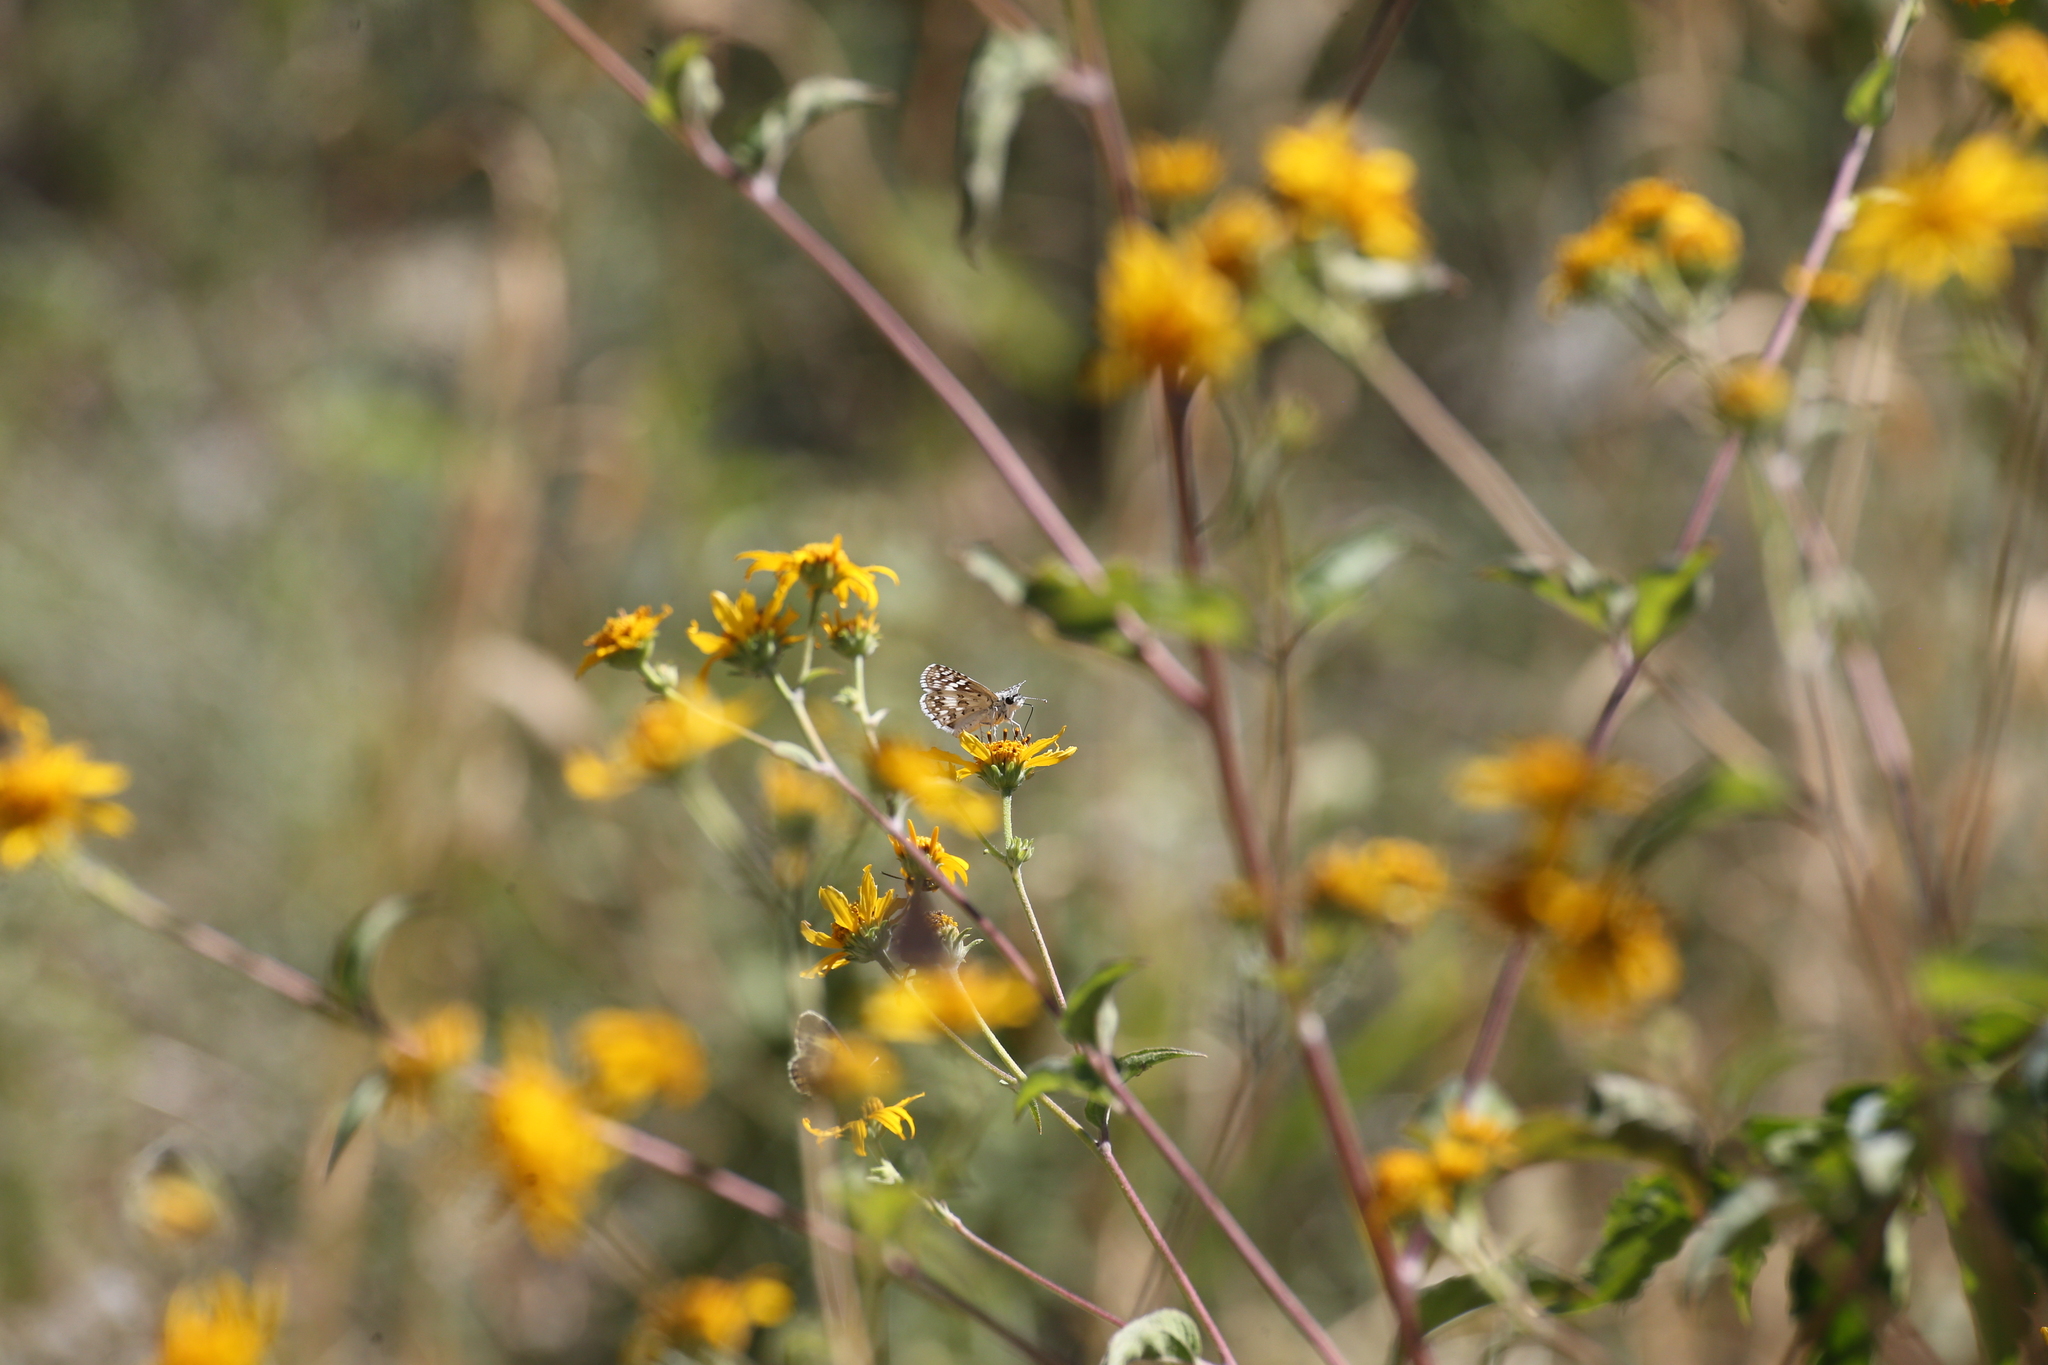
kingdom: Animalia
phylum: Arthropoda
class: Insecta
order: Lepidoptera
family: Hesperiidae
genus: Burnsius
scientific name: Burnsius
